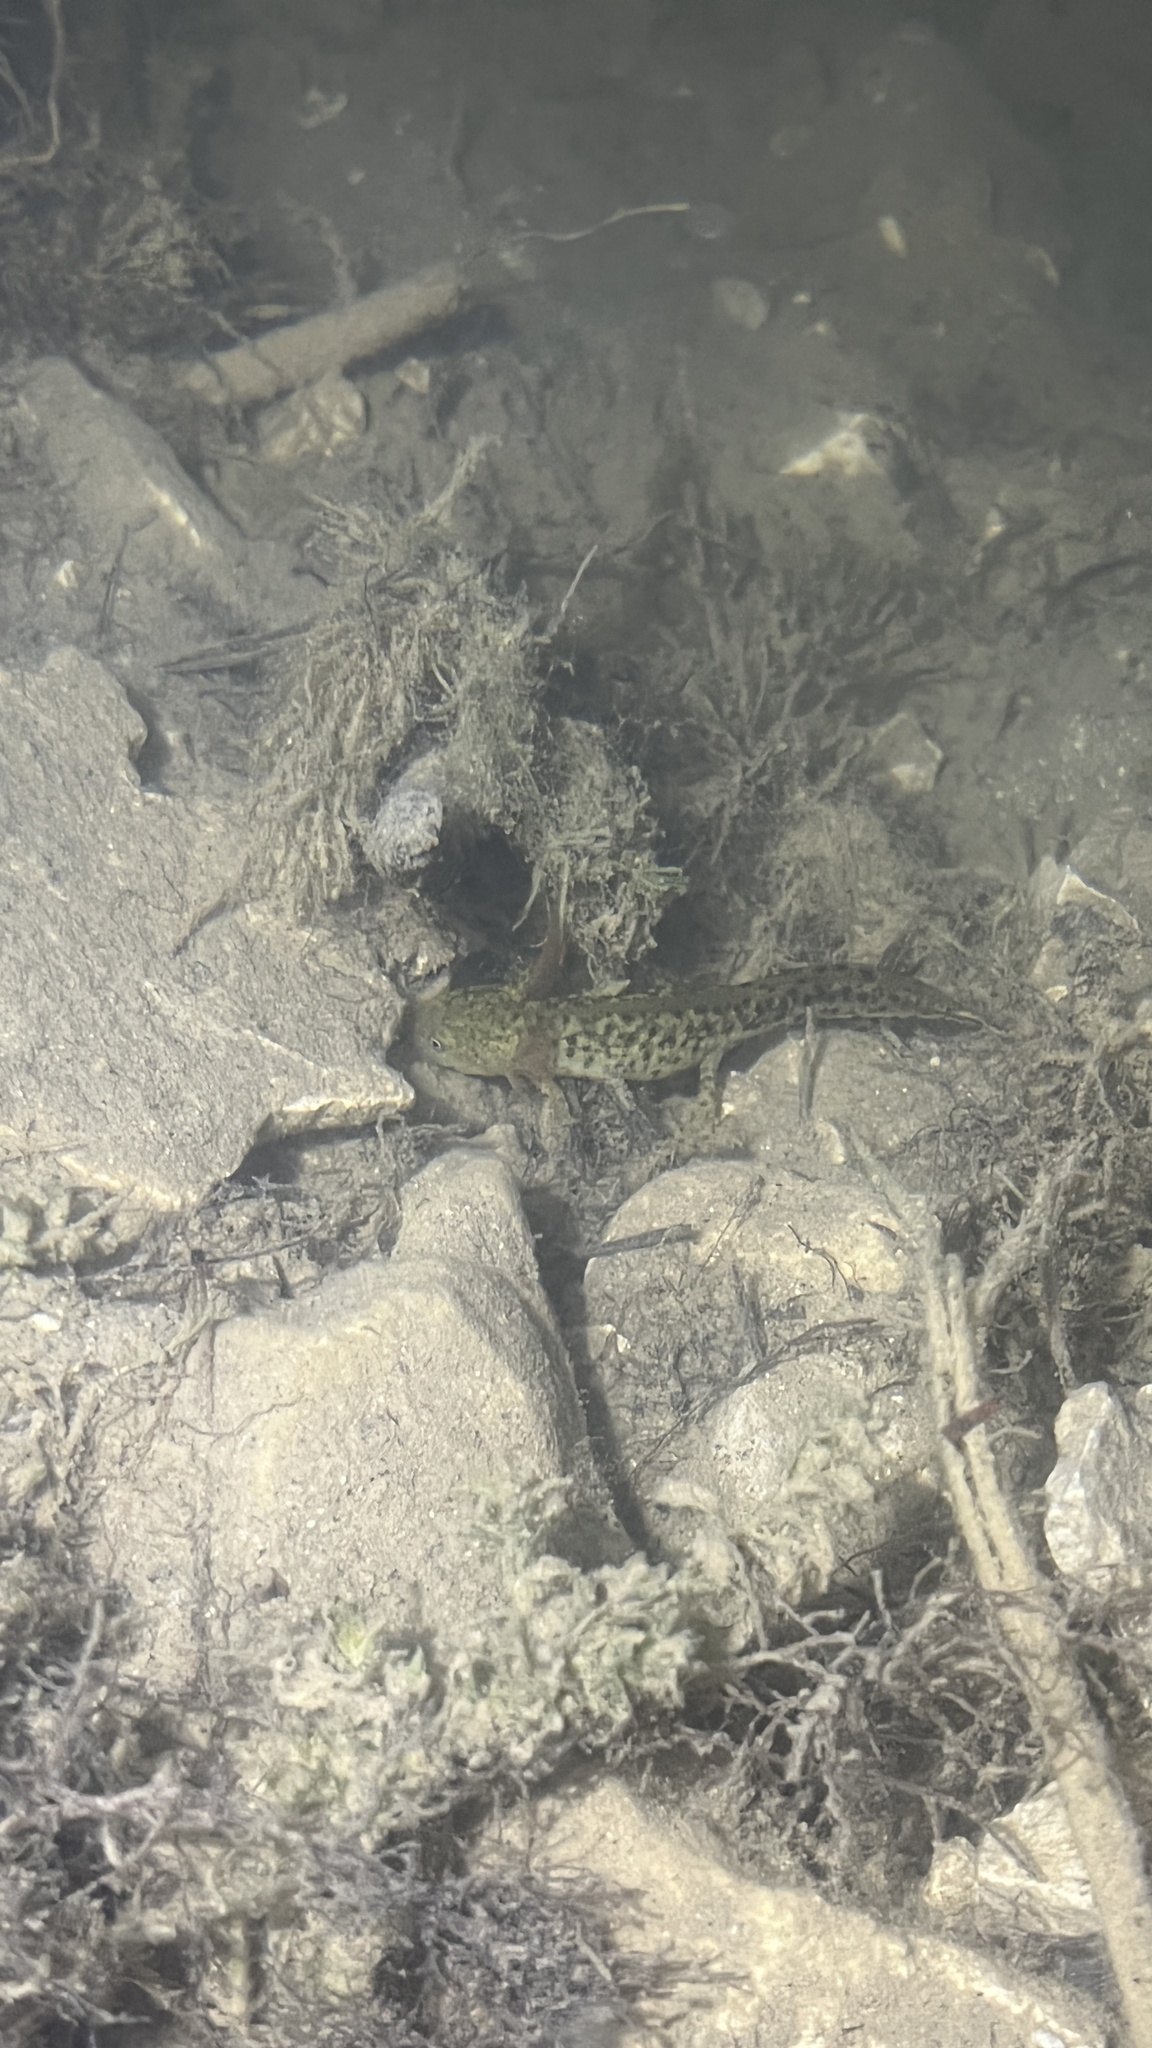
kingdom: Animalia
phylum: Chordata
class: Amphibia
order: Caudata
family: Salamandridae
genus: Triturus
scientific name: Triturus cristatus
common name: Crested newt
